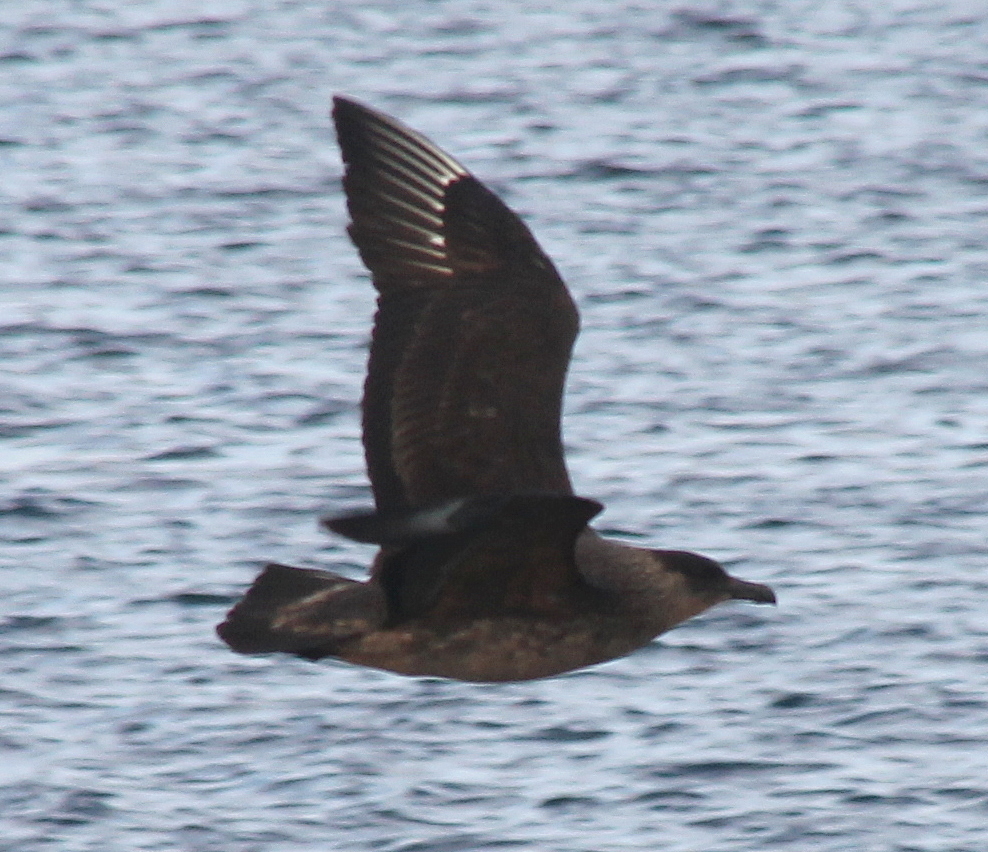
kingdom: Animalia
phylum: Chordata
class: Aves
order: Charadriiformes
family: Stercorariidae
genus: Stercorarius
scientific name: Stercorarius chilensis
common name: Chilean skua
